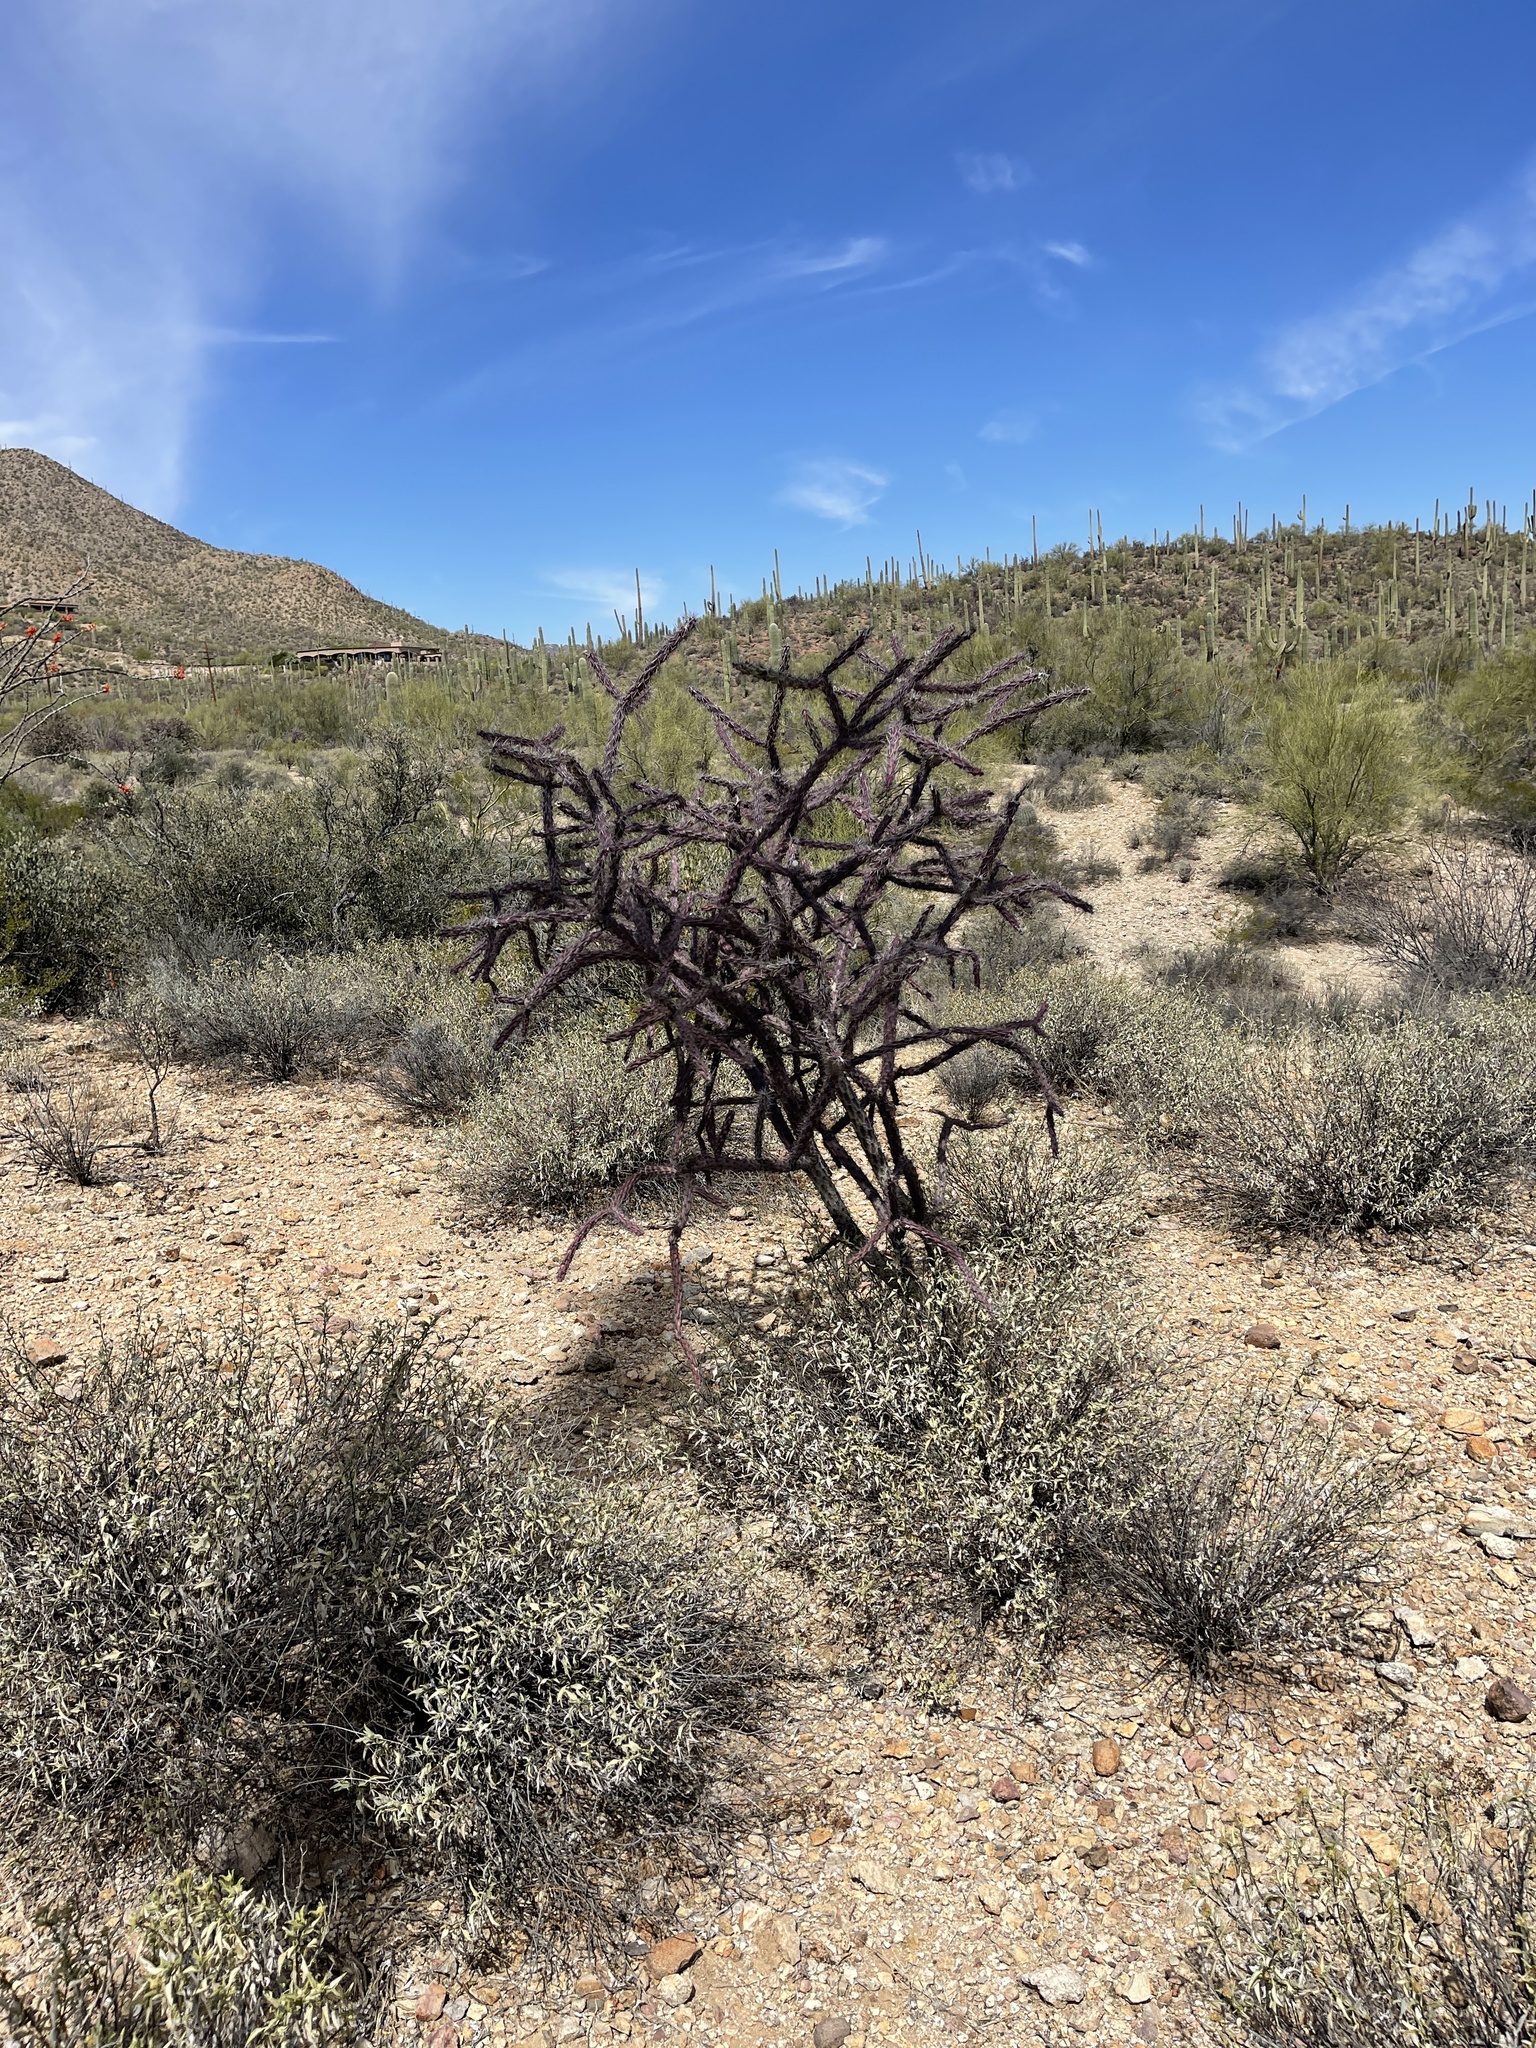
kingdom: Plantae
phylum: Tracheophyta
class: Magnoliopsida
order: Caryophyllales
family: Cactaceae
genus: Cylindropuntia
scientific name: Cylindropuntia thurberi
